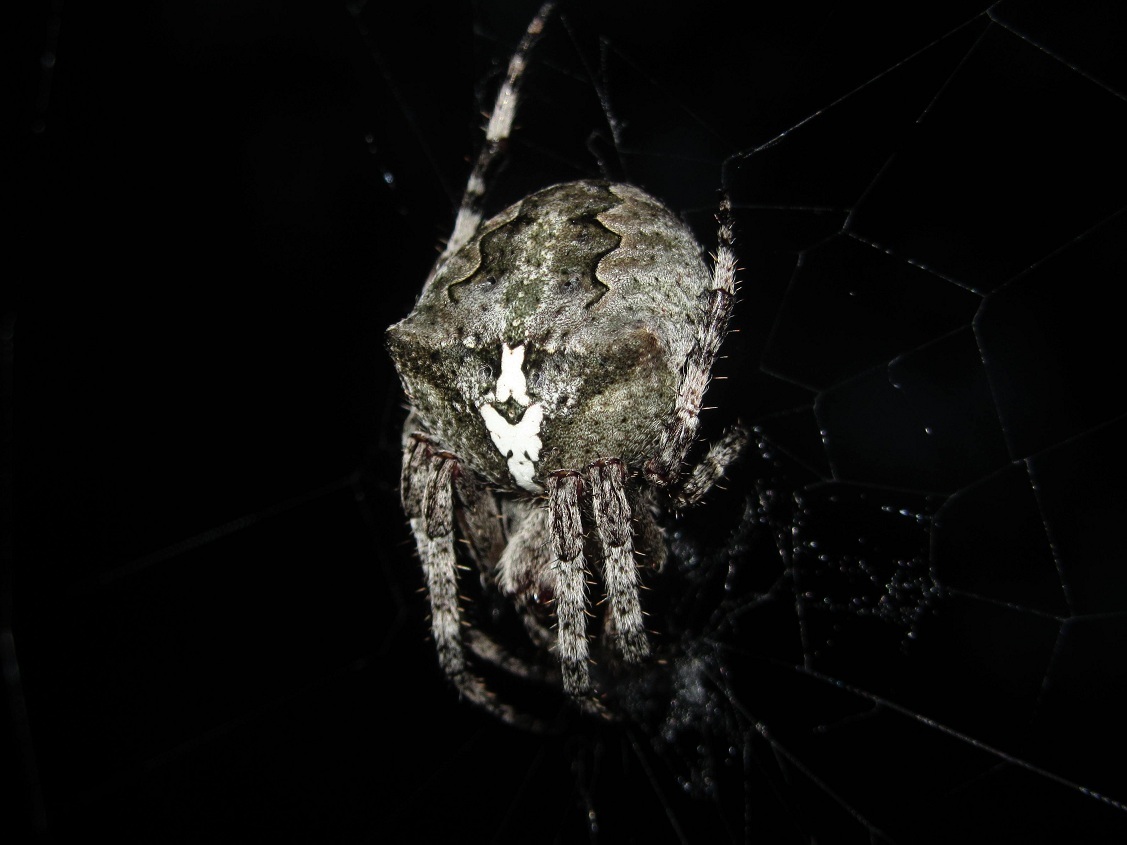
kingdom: Animalia
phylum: Arthropoda
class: Arachnida
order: Araneae
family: Araneidae
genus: Araneus
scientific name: Araneus angulatus
